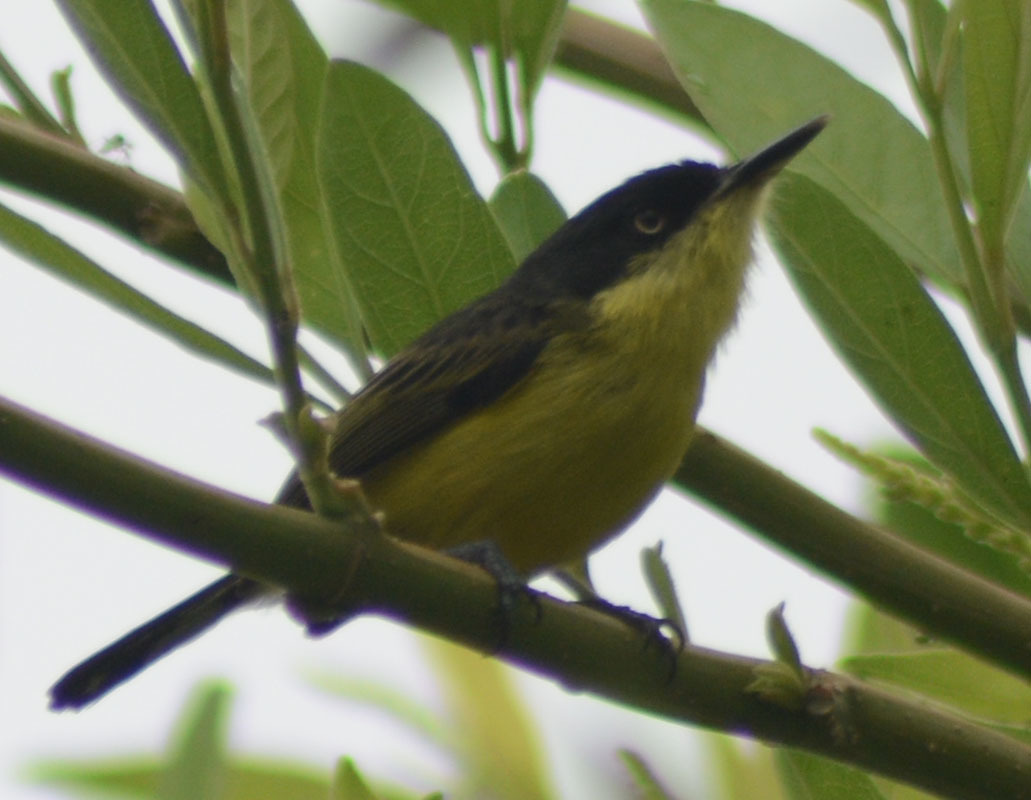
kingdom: Animalia
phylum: Chordata
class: Aves
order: Passeriformes
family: Tyrannidae
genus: Todirostrum
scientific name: Todirostrum cinereum
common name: Common tody-flycatcher
